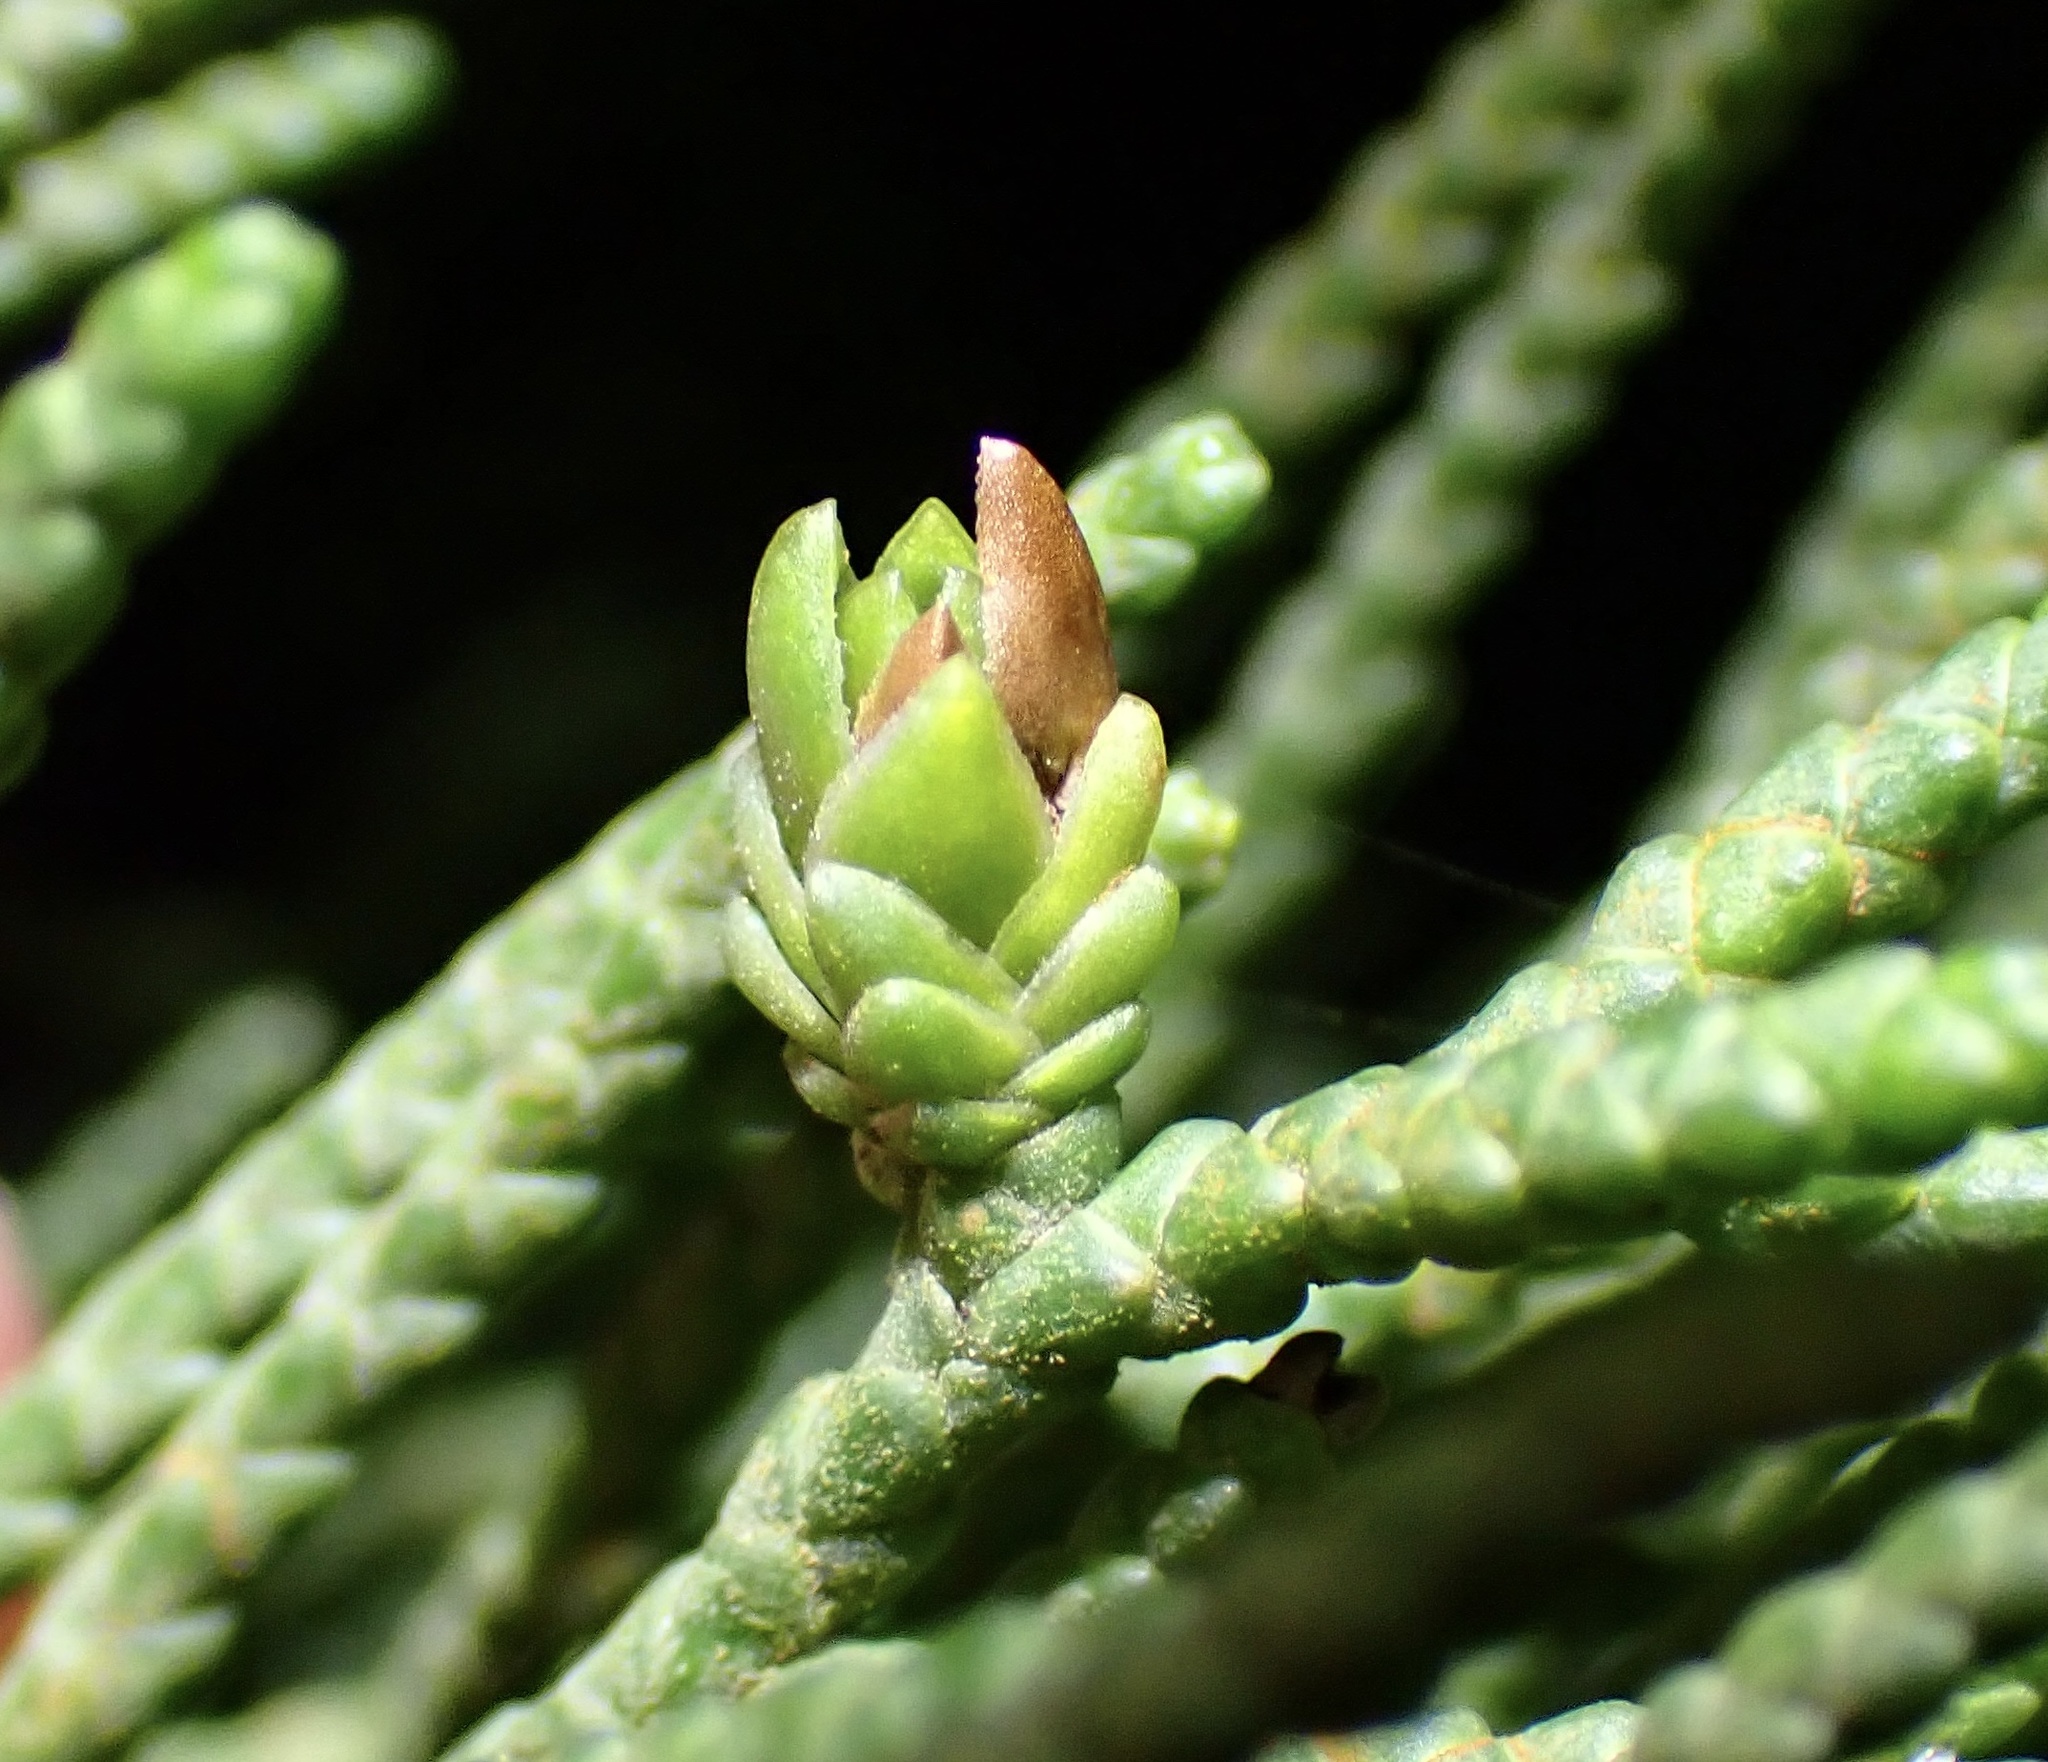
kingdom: Animalia
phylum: Arthropoda
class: Insecta
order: Diptera
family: Cecidomyiidae
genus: Oligotrophus
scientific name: Oligotrophus cupressi
